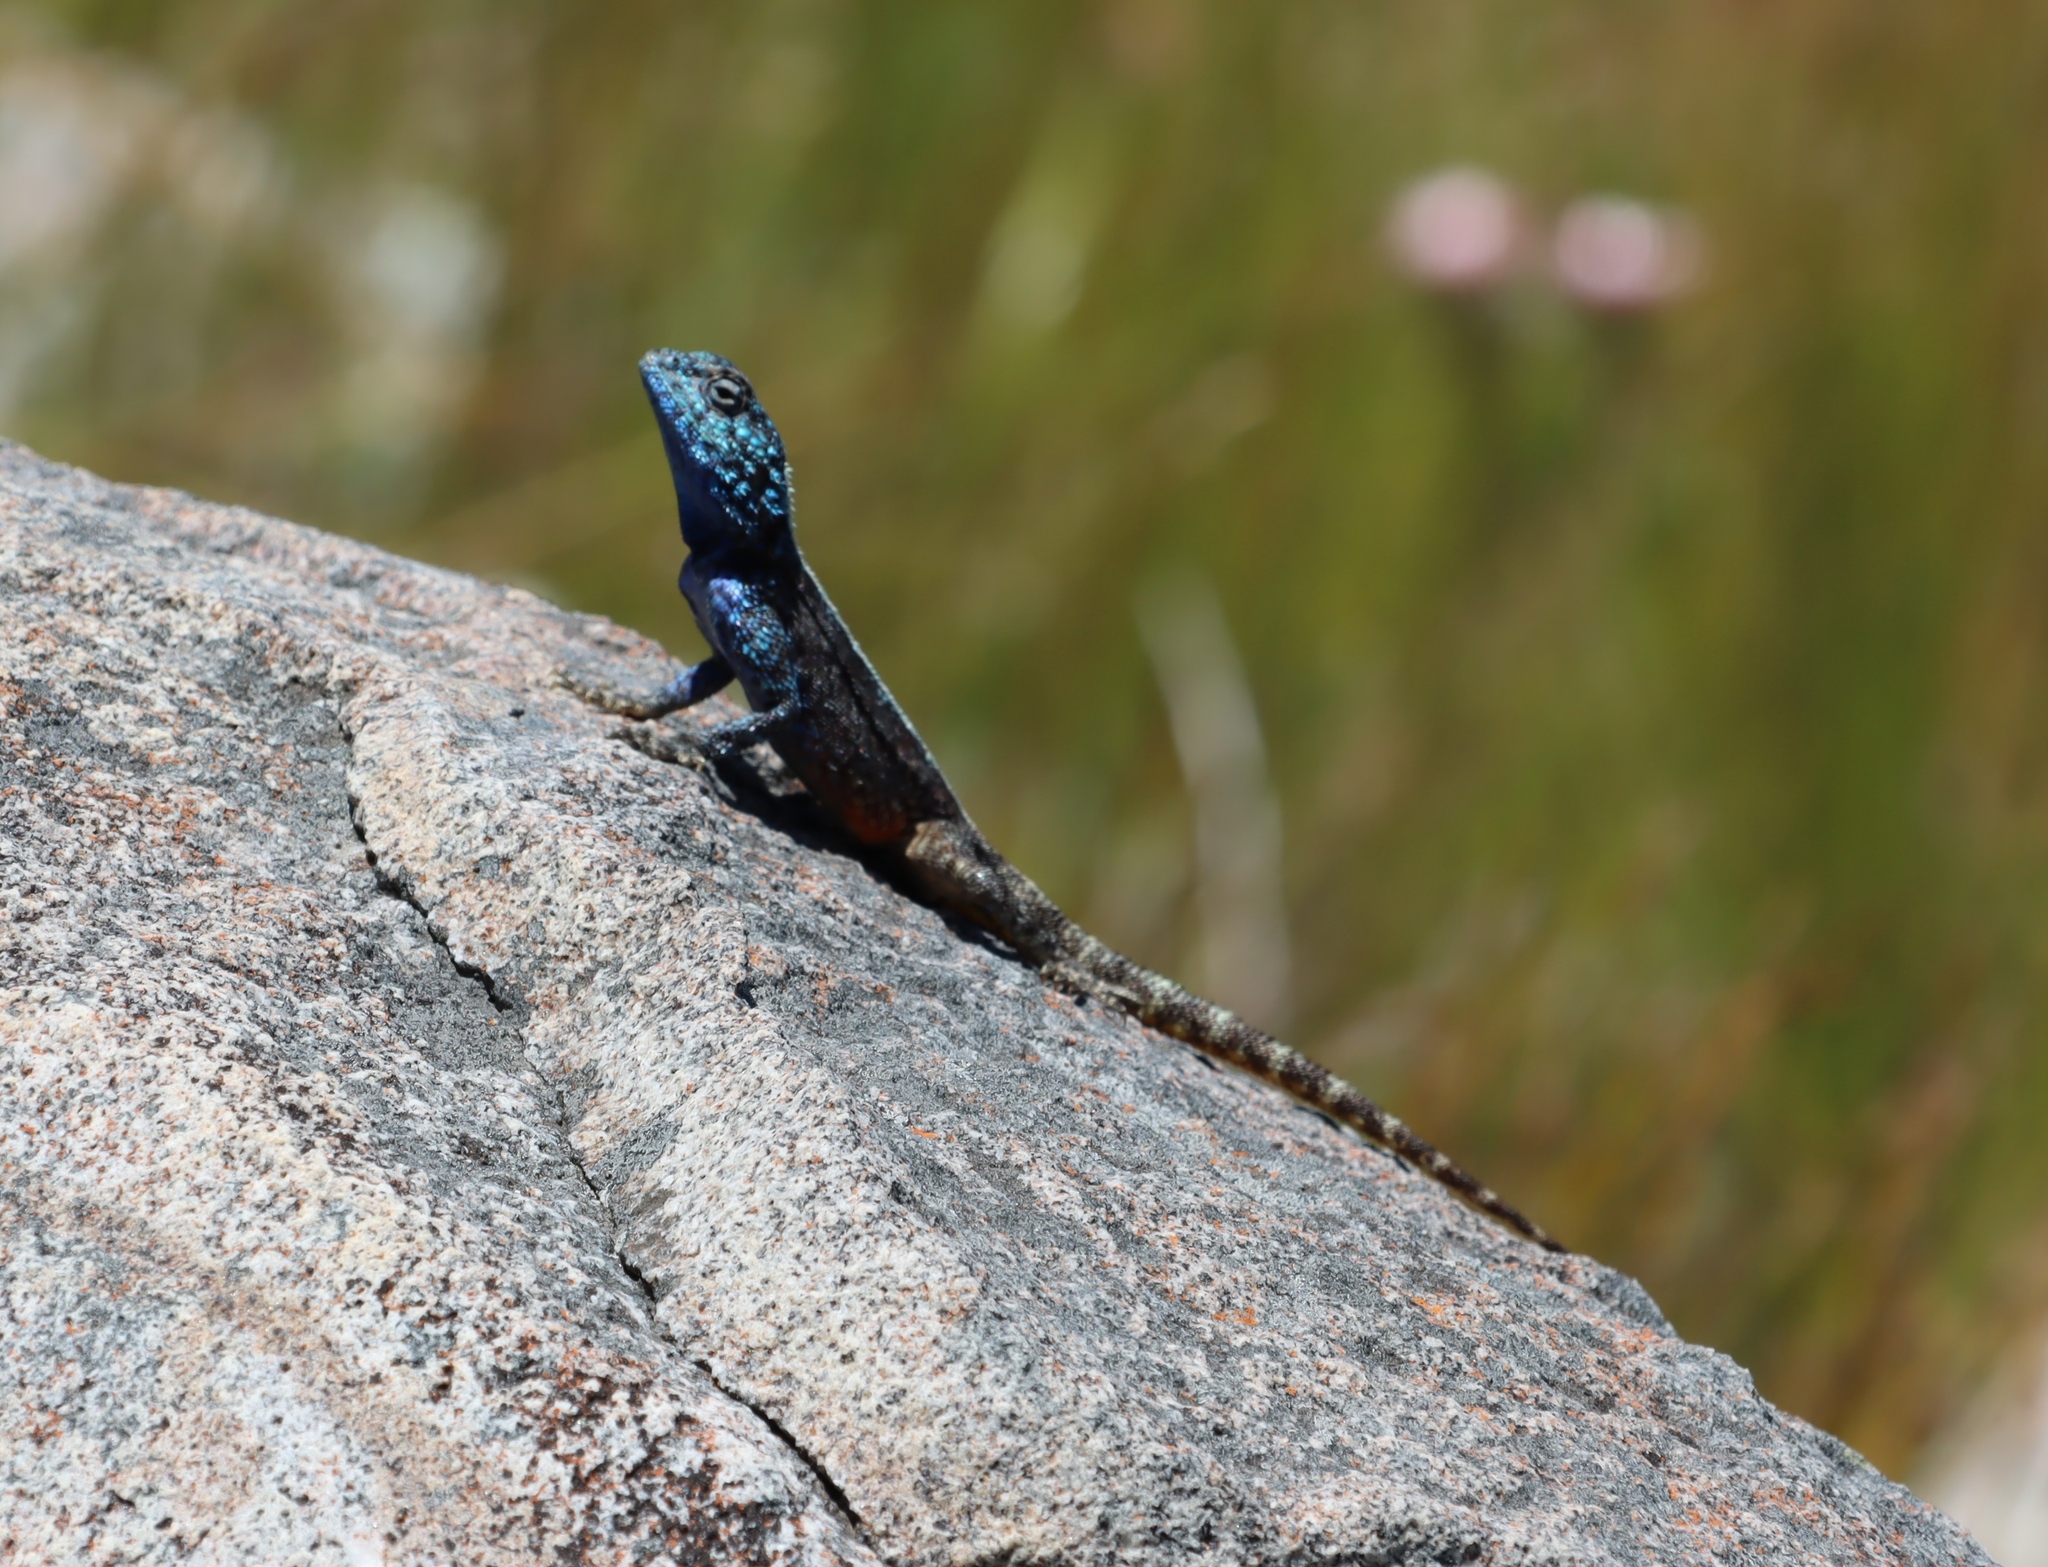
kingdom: Animalia
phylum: Chordata
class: Squamata
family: Agamidae
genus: Agama
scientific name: Agama atra
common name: Southern african rock agama
